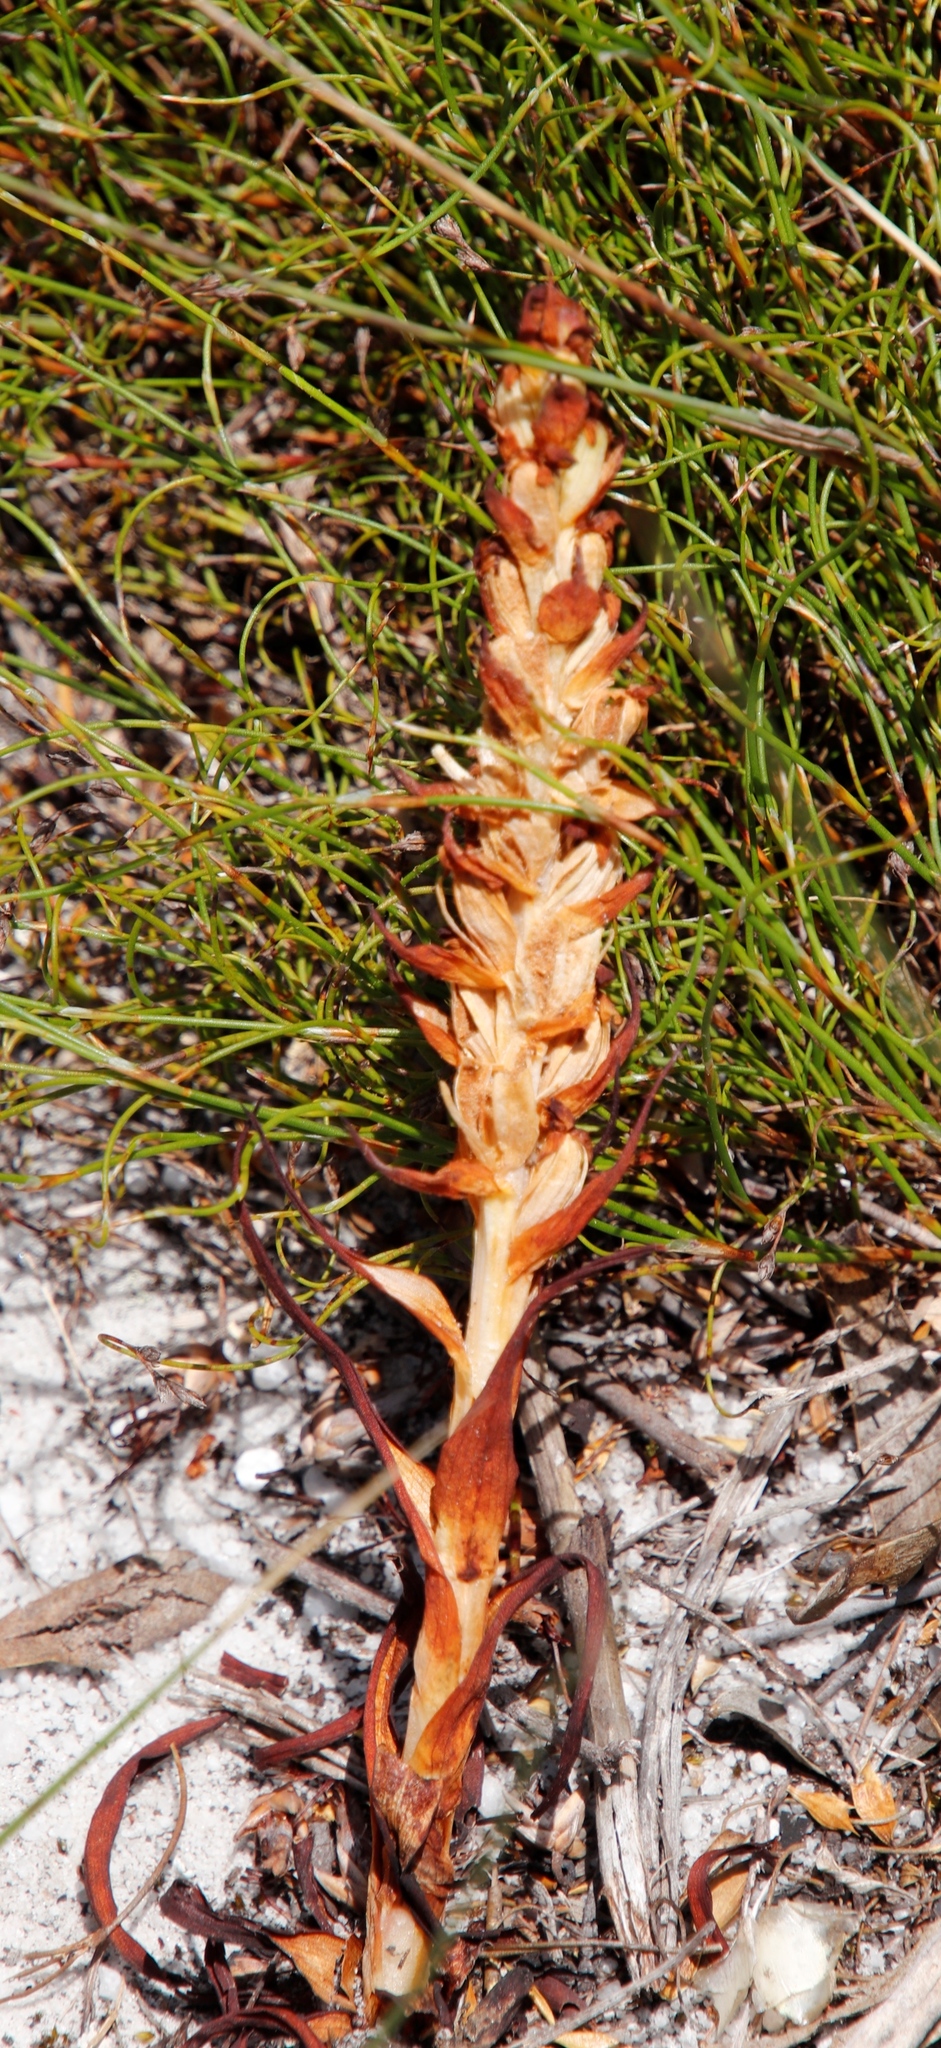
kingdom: Plantae
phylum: Tracheophyta
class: Liliopsida
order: Asparagales
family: Orchidaceae
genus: Disa
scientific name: Disa bracteata
